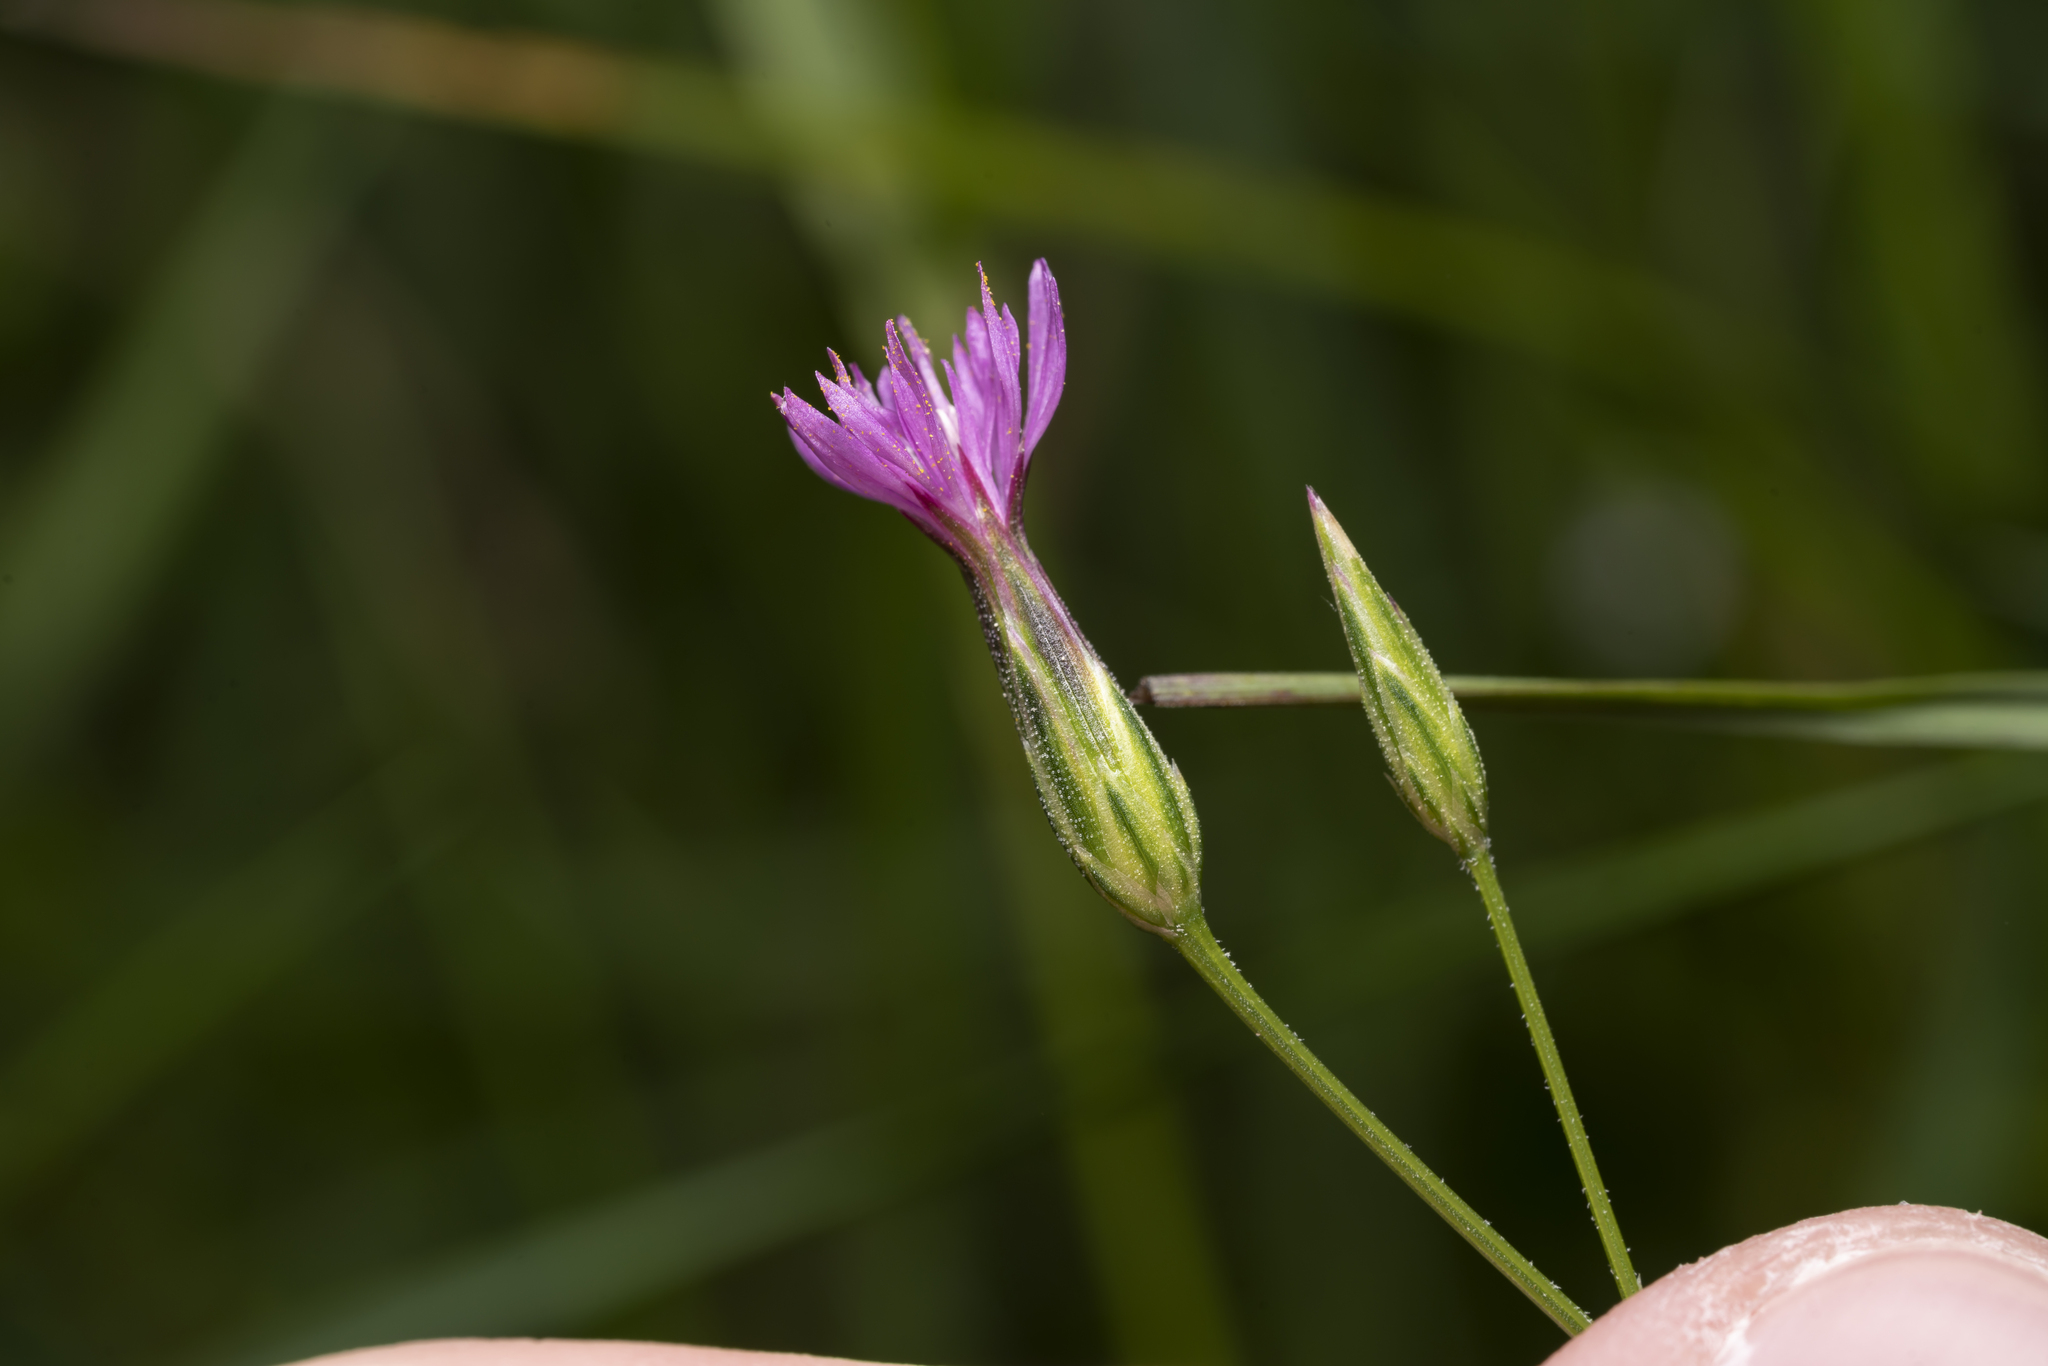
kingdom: Plantae
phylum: Tracheophyta
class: Magnoliopsida
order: Asterales
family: Asteraceae
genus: Crupina
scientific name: Crupina vulgaris
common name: Common crupina
